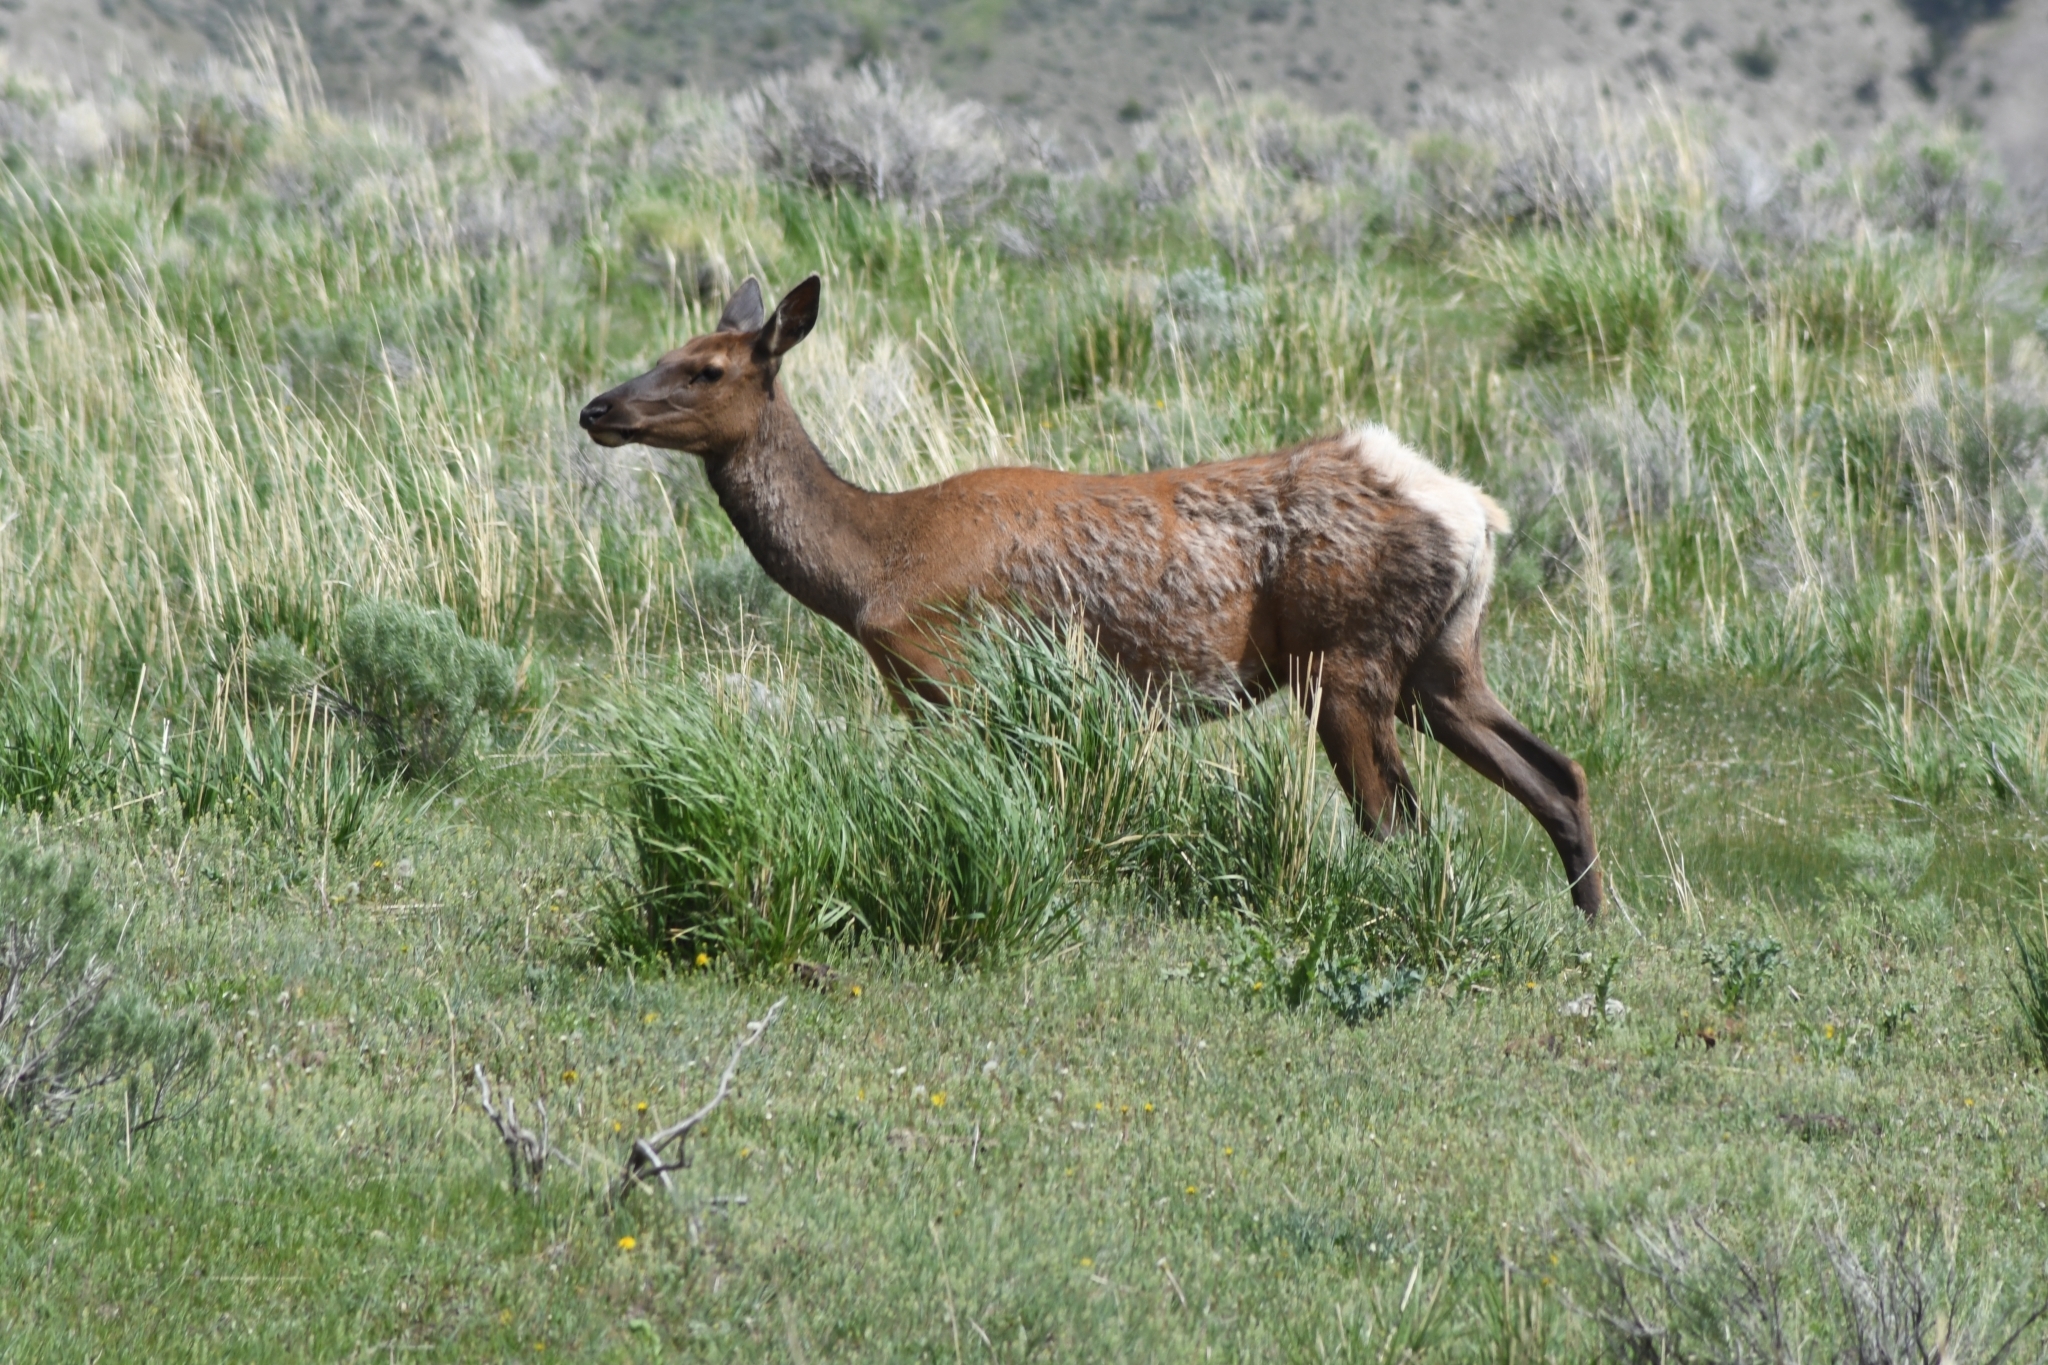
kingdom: Animalia
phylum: Chordata
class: Mammalia
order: Artiodactyla
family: Cervidae
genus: Cervus
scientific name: Cervus elaphus
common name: Red deer
